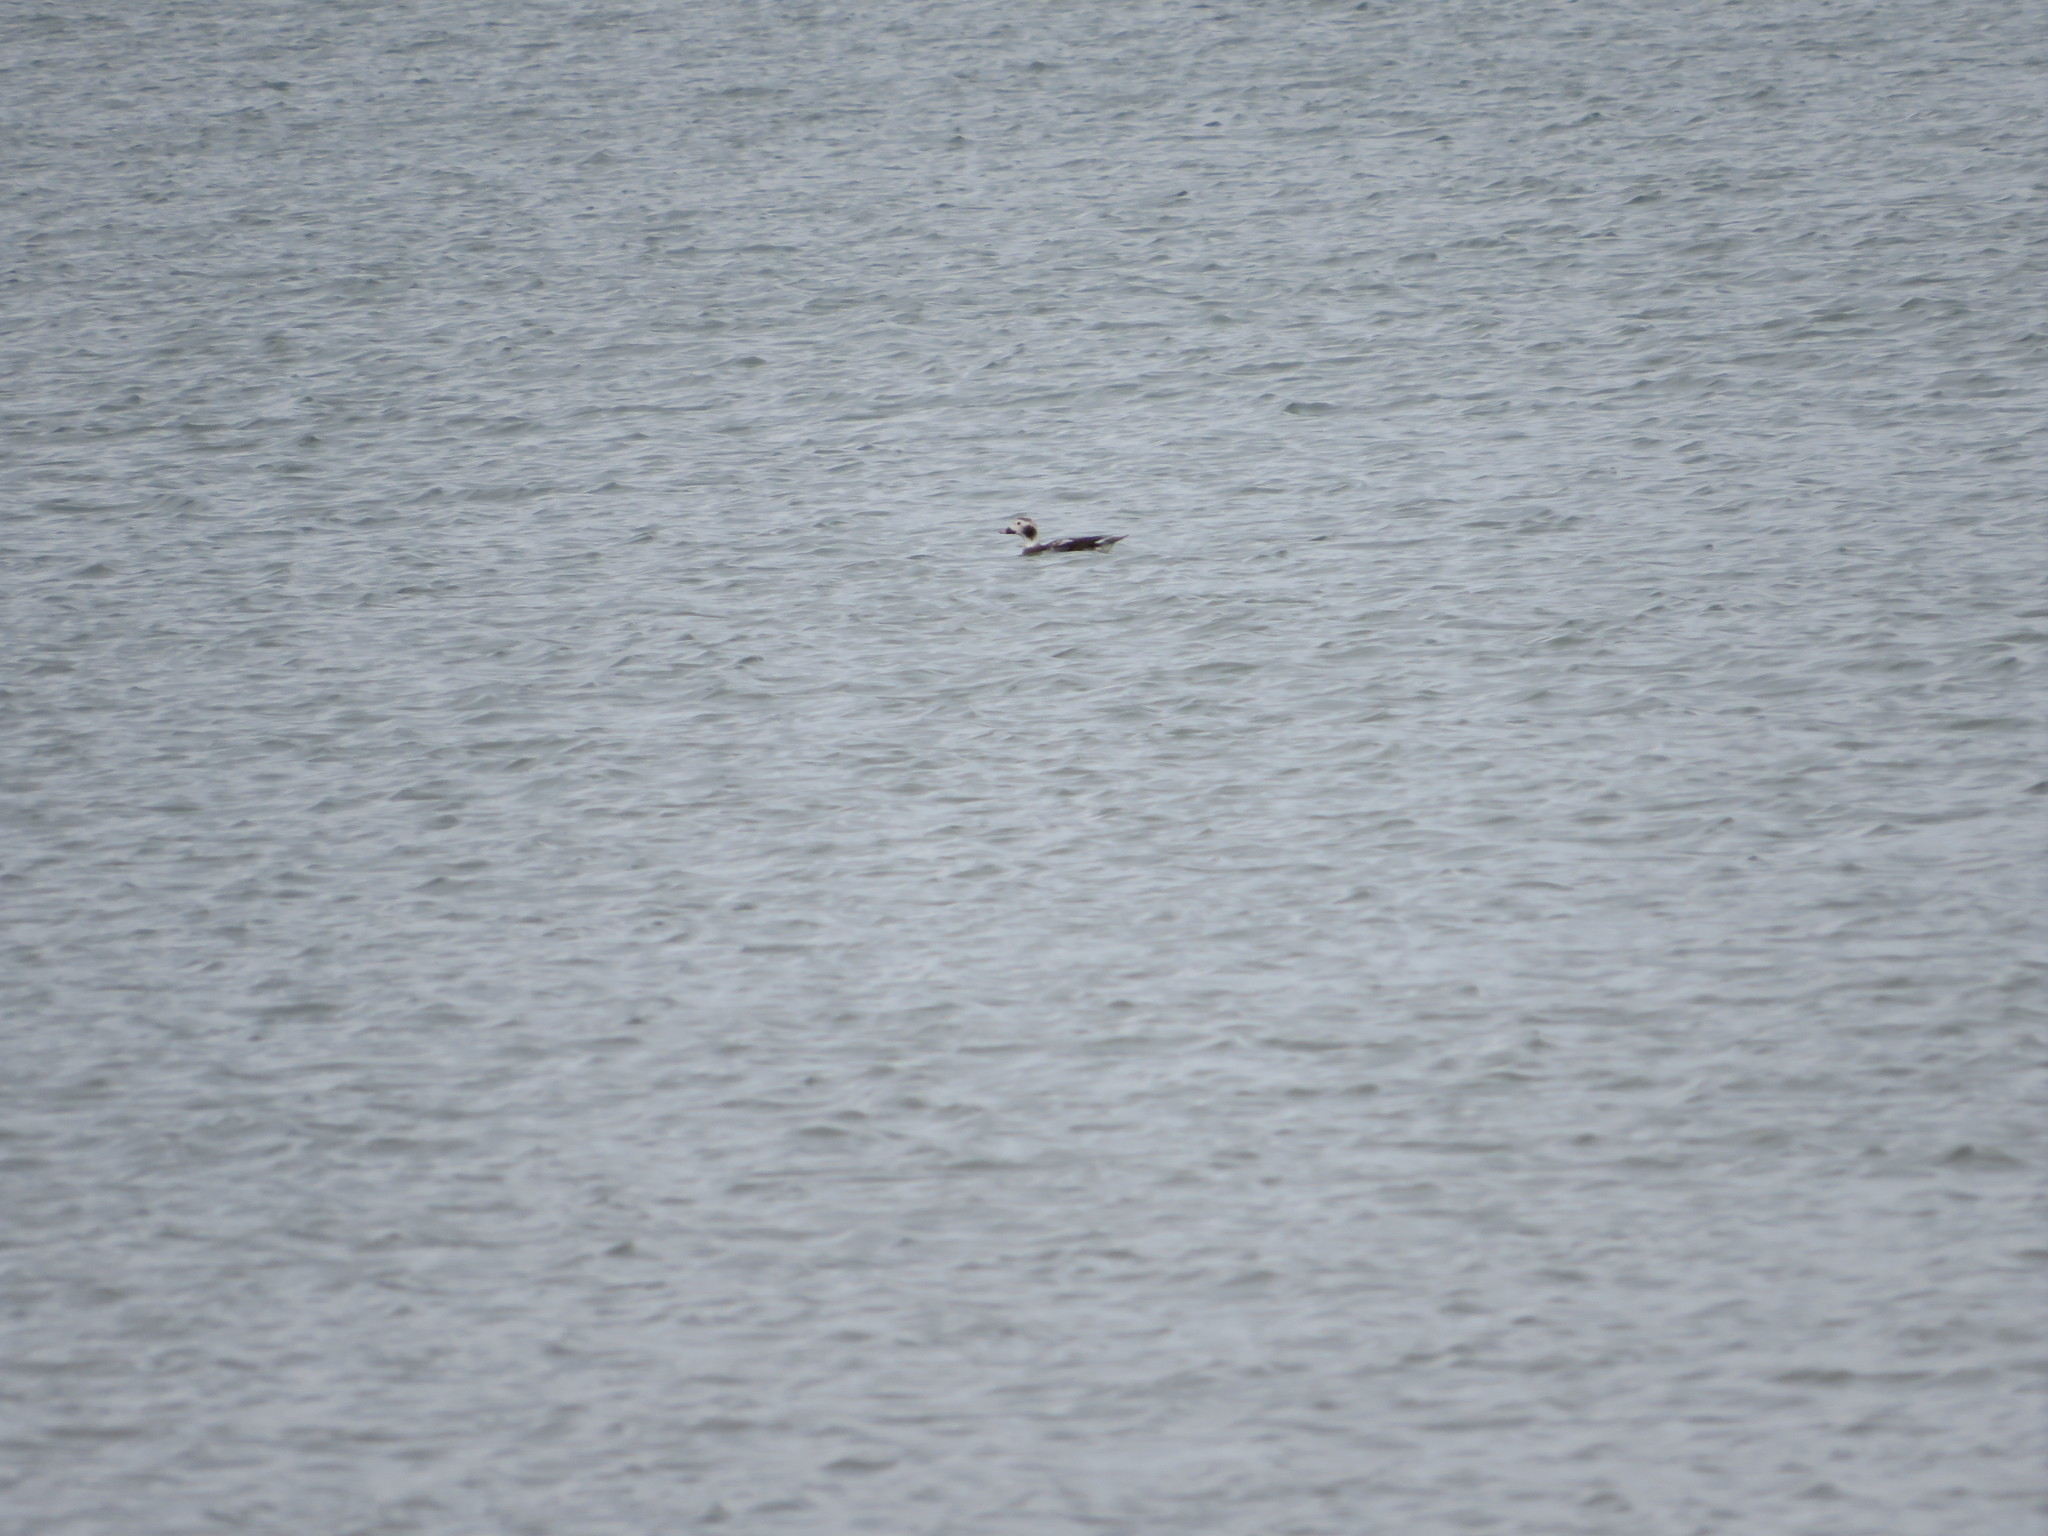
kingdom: Animalia
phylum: Chordata
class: Aves
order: Anseriformes
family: Anatidae
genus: Clangula
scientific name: Clangula hyemalis
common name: Long-tailed duck
